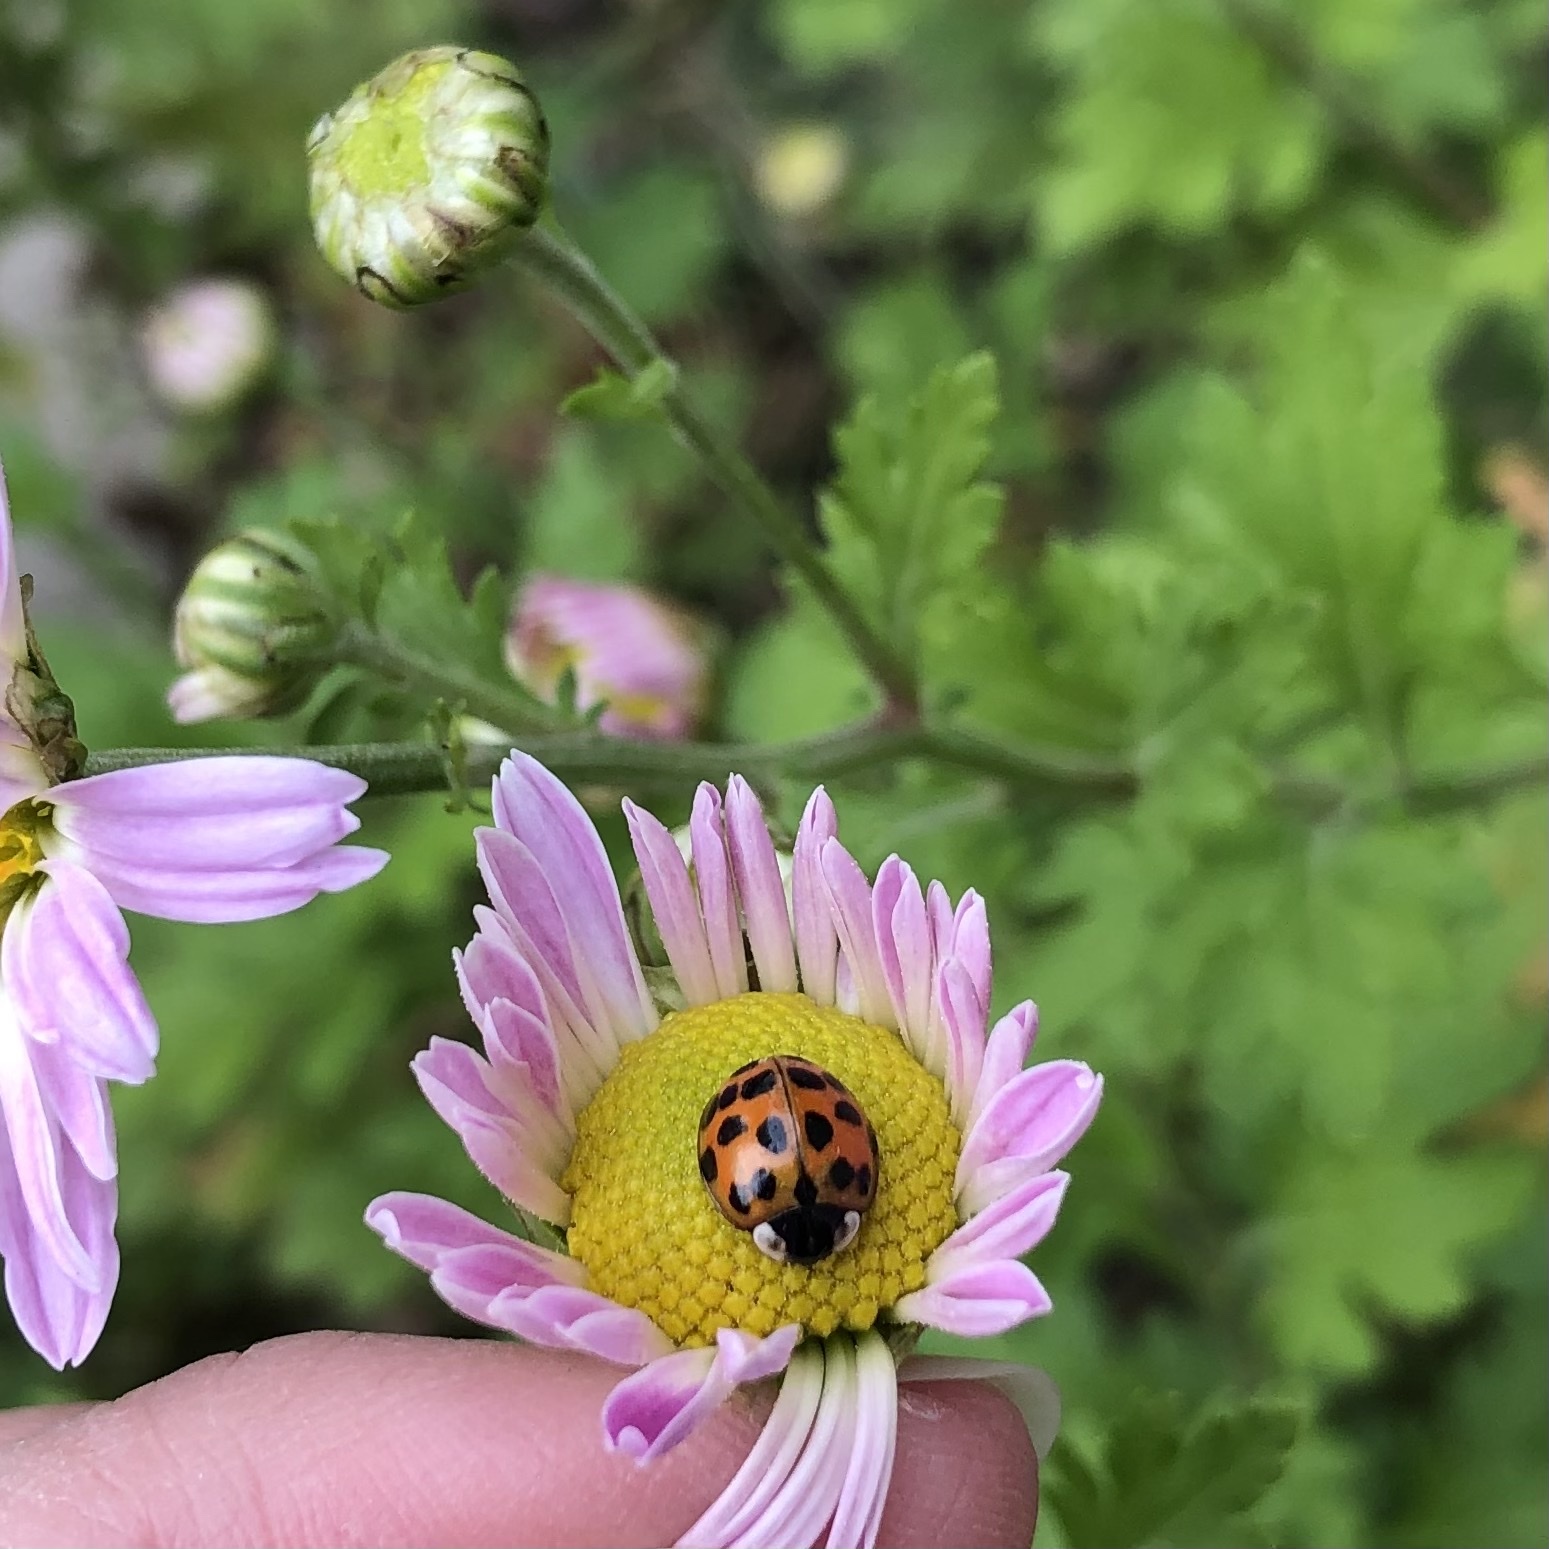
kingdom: Animalia
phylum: Arthropoda
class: Insecta
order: Coleoptera
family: Coccinellidae
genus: Harmonia
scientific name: Harmonia axyridis
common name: Harlequin ladybird
